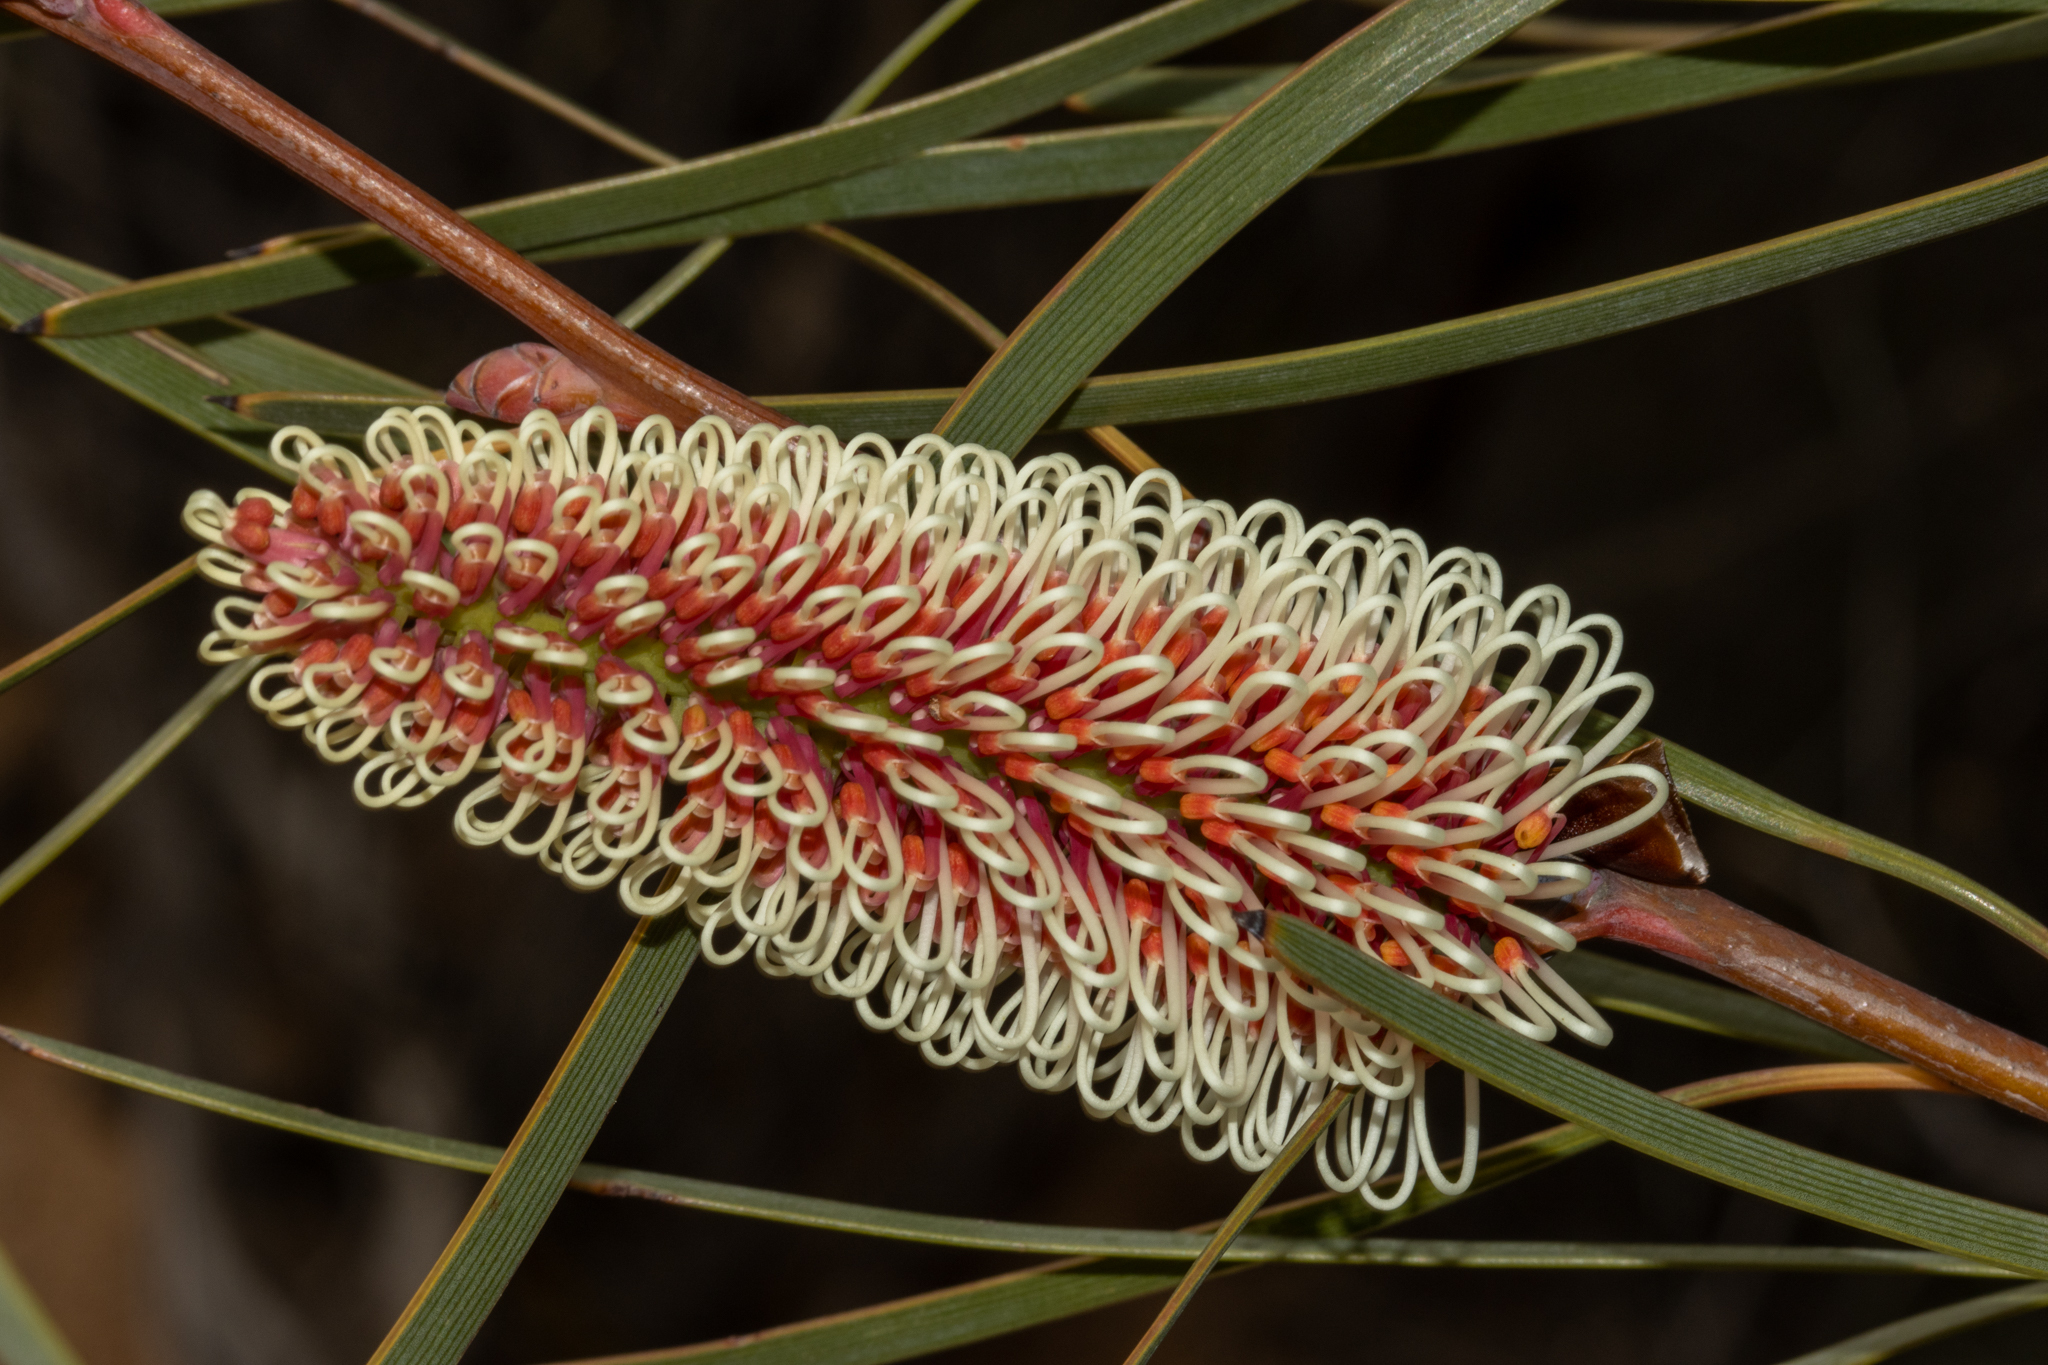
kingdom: Plantae
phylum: Tracheophyta
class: Magnoliopsida
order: Proteales
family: Proteaceae
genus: Hakea
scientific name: Hakea francisiana
